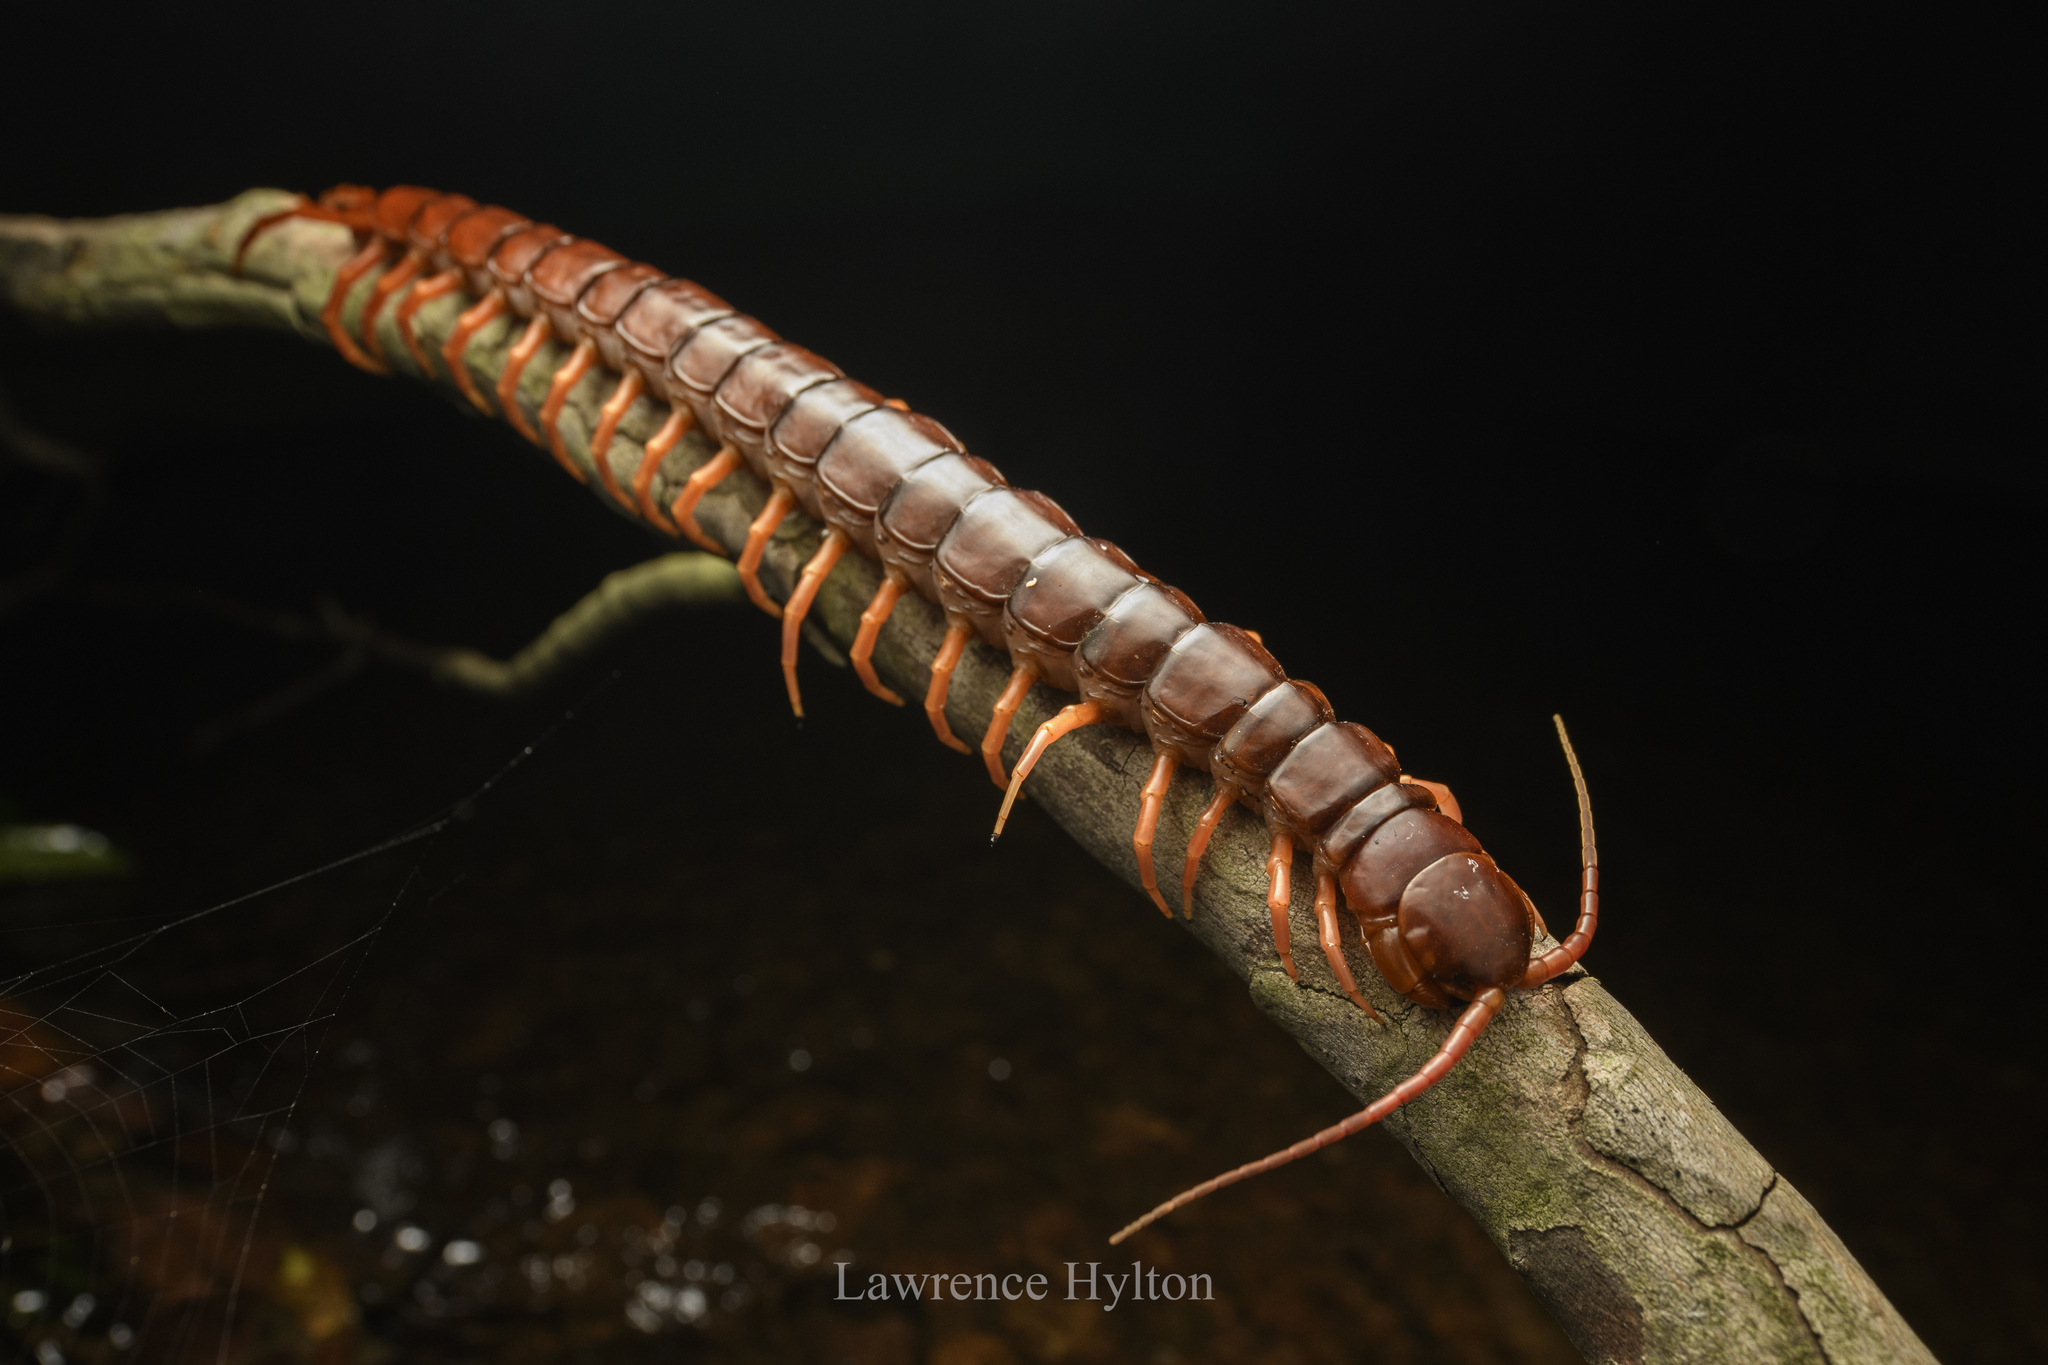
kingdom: Animalia
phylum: Arthropoda
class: Chilopoda
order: Scolopendromorpha
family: Scolopendridae
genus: Scolopendra
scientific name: Scolopendra dehaani
